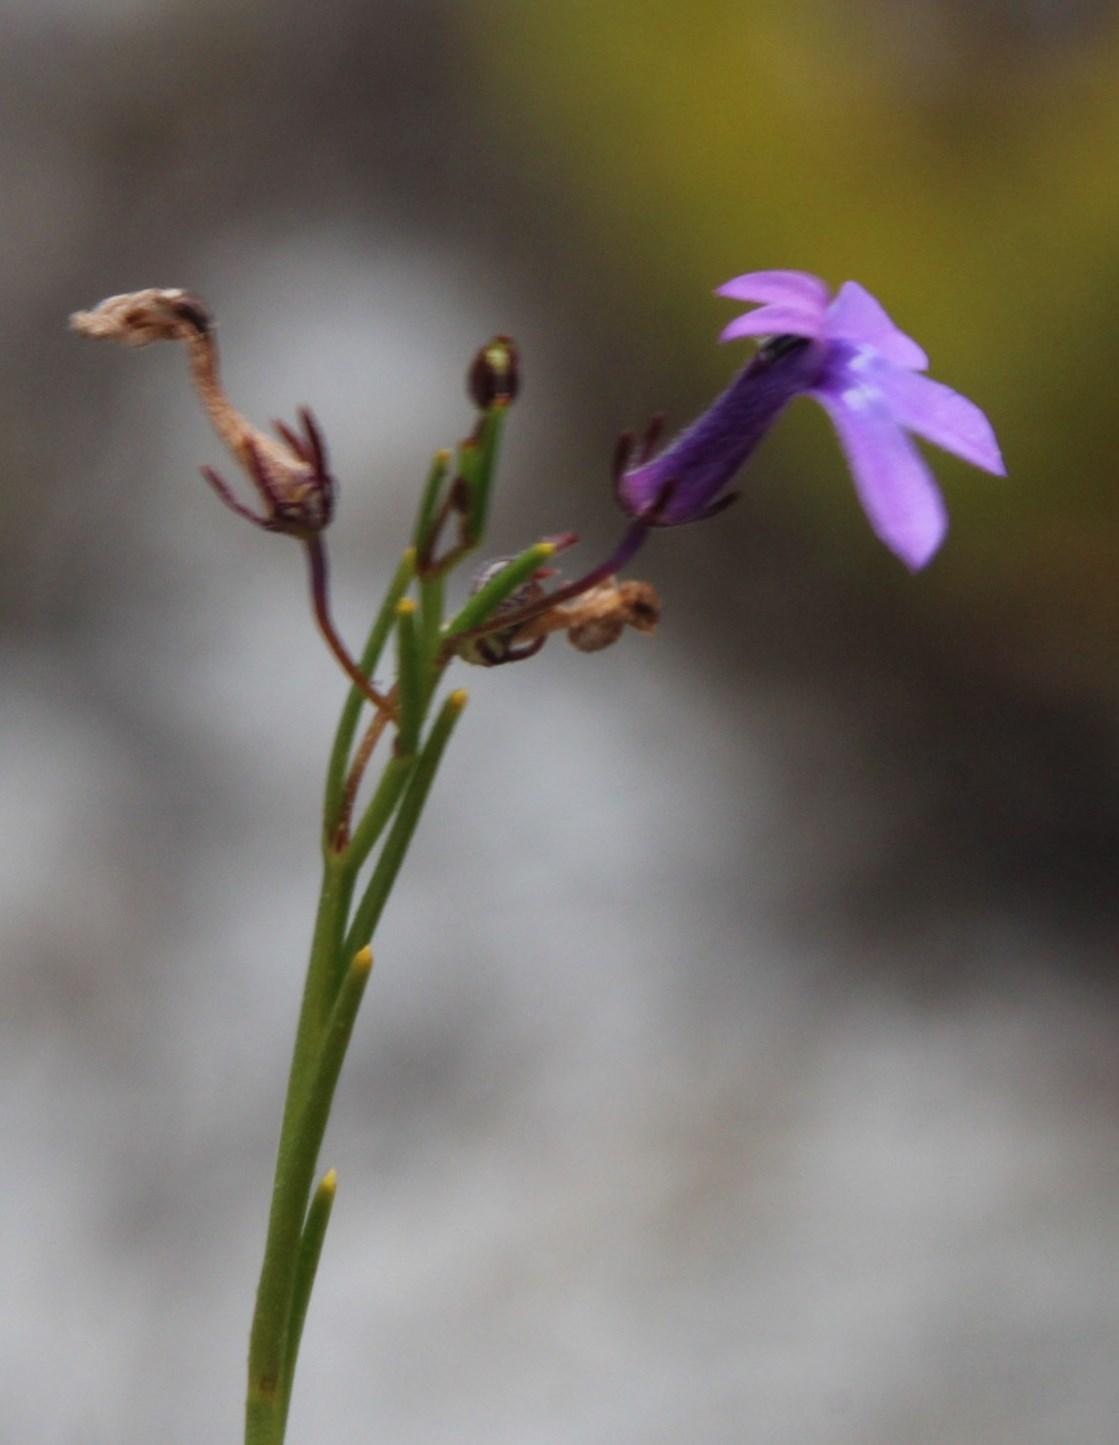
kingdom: Plantae
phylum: Tracheophyta
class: Magnoliopsida
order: Asterales
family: Campanulaceae
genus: Lobelia
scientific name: Lobelia setacea
